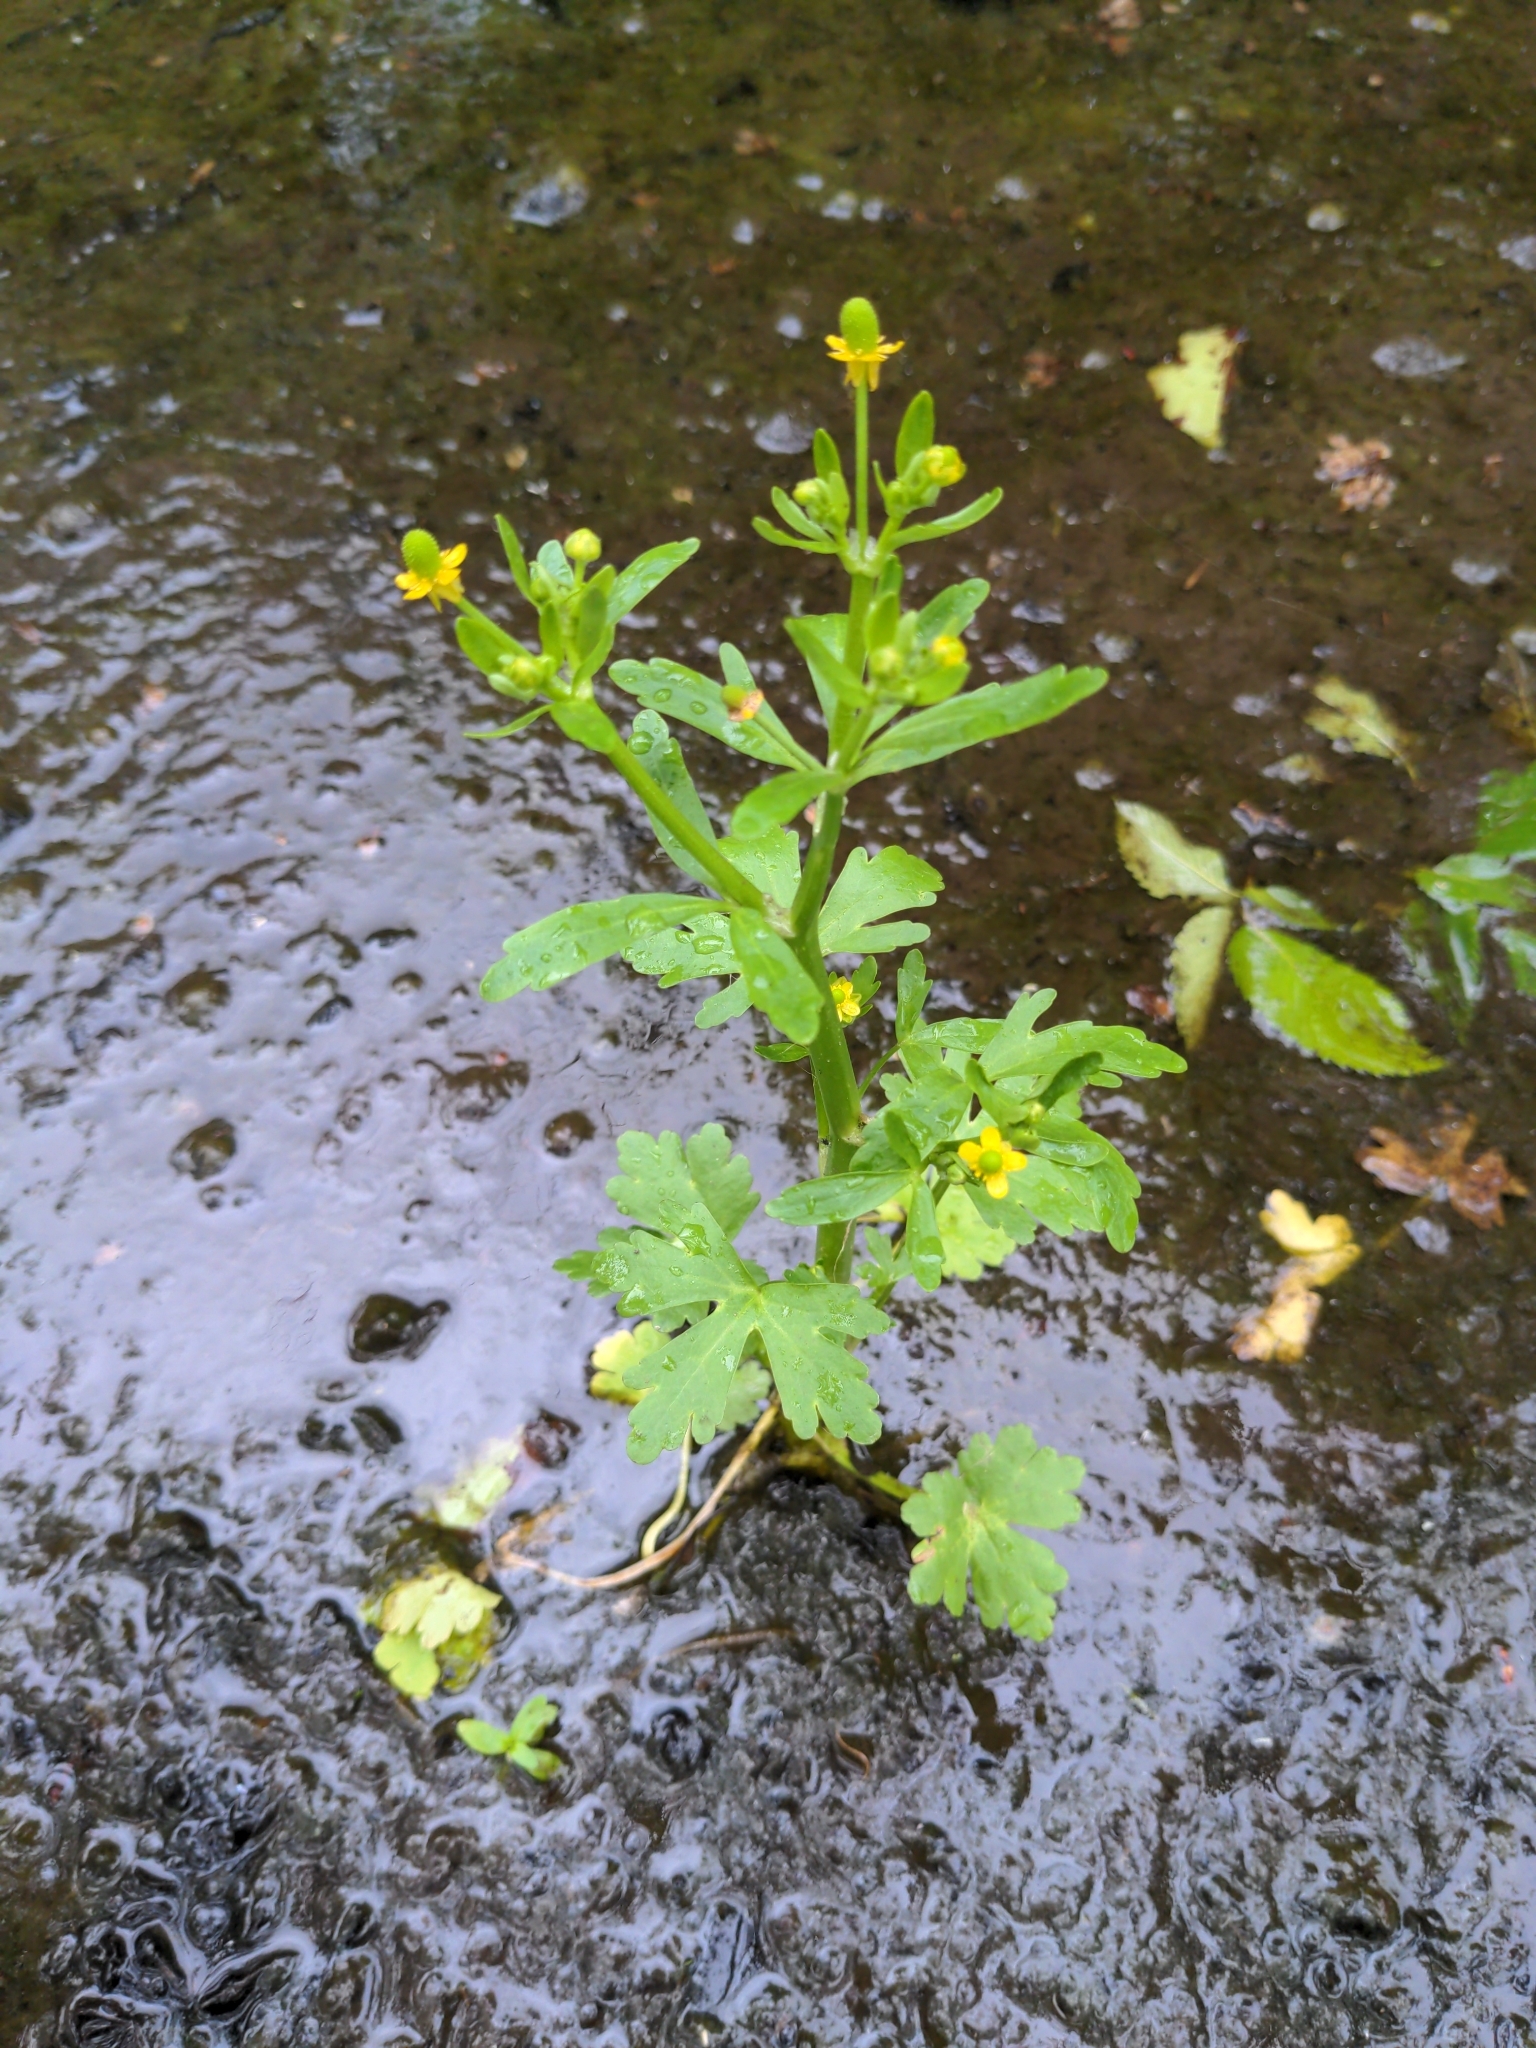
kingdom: Plantae
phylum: Tracheophyta
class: Magnoliopsida
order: Ranunculales
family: Ranunculaceae
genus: Ranunculus
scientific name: Ranunculus sceleratus
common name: Celery-leaved buttercup
